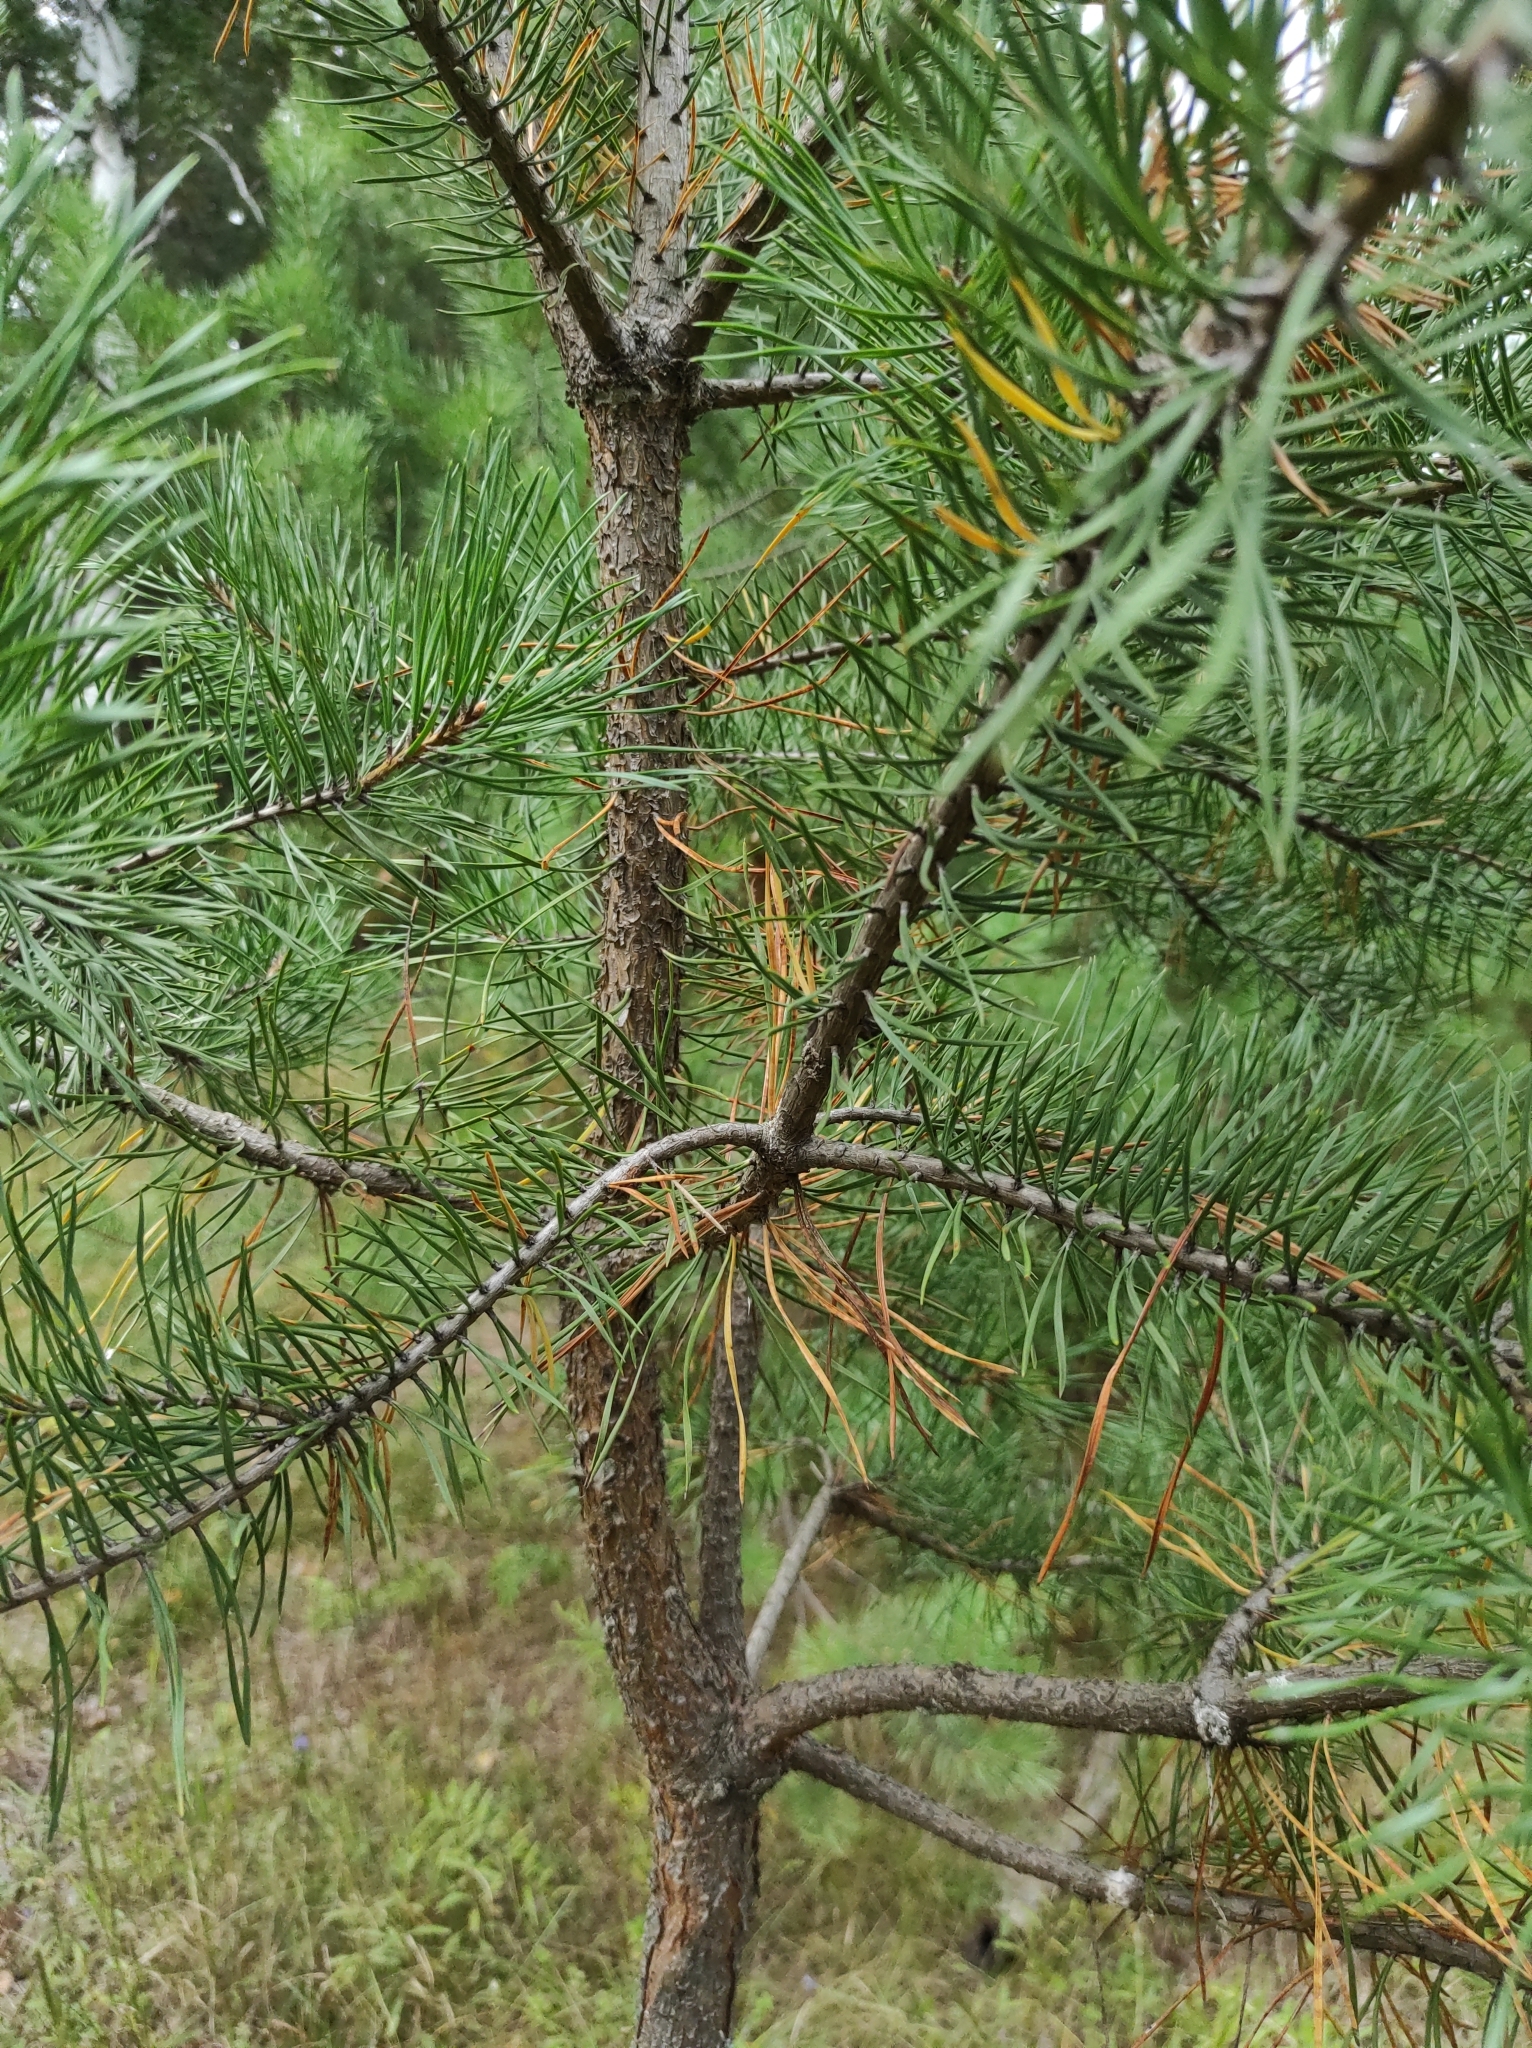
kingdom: Plantae
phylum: Tracheophyta
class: Pinopsida
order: Pinales
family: Pinaceae
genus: Pinus
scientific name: Pinus sylvestris
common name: Scots pine
